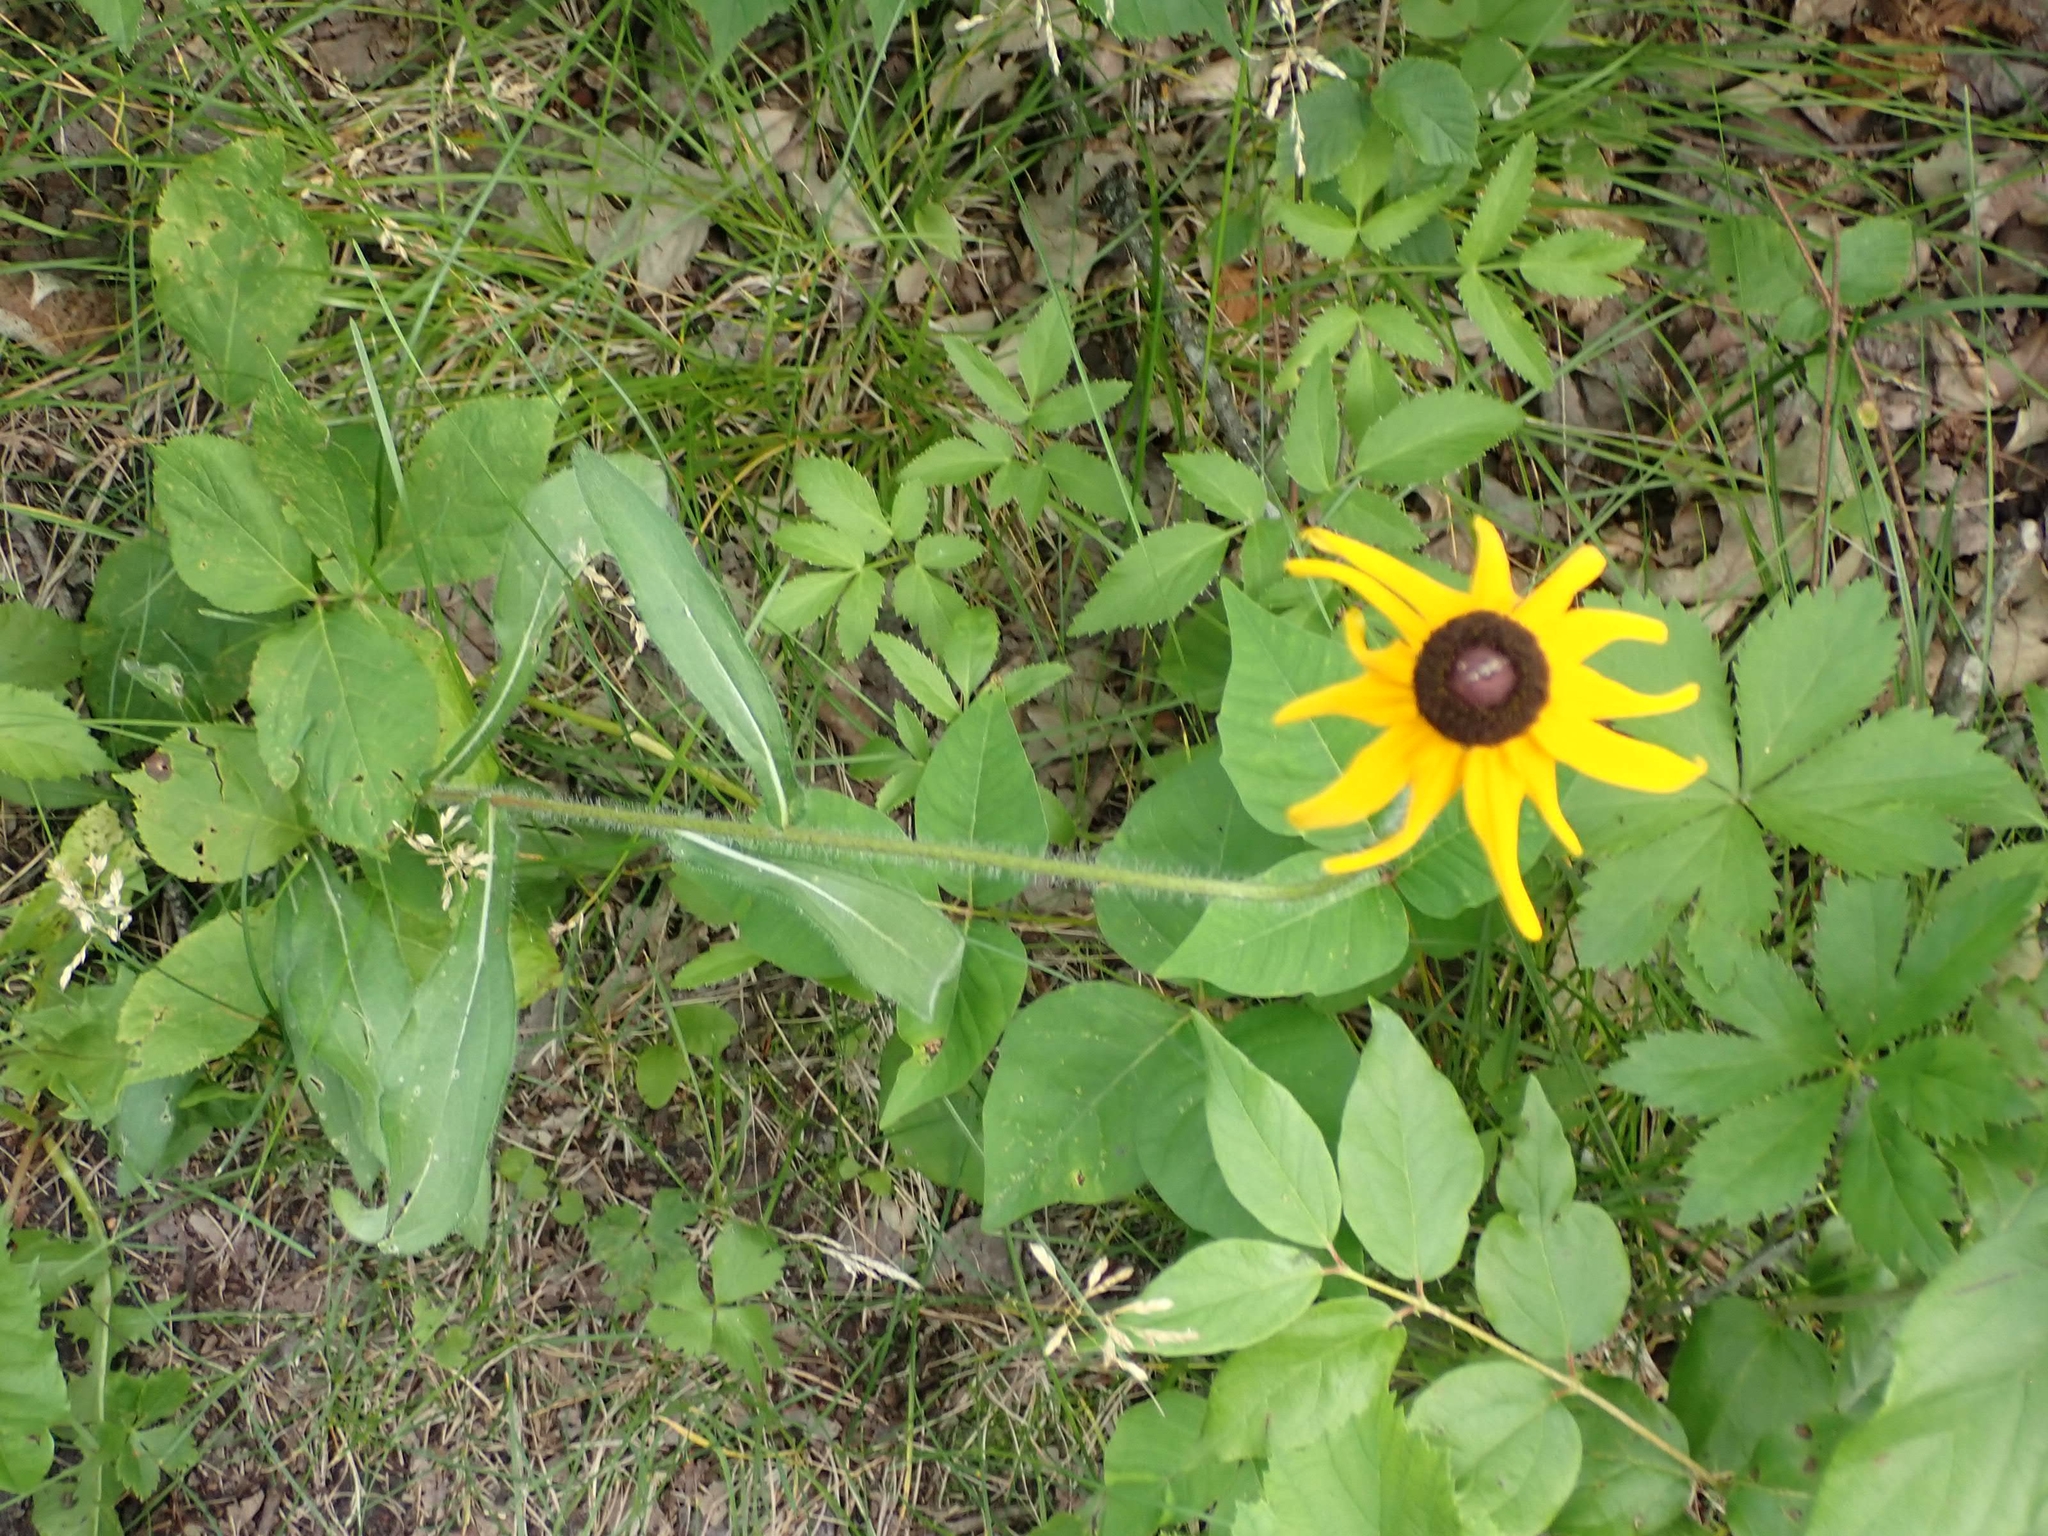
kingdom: Plantae
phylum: Tracheophyta
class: Magnoliopsida
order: Asterales
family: Asteraceae
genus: Rudbeckia
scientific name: Rudbeckia hirta
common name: Black-eyed-susan
